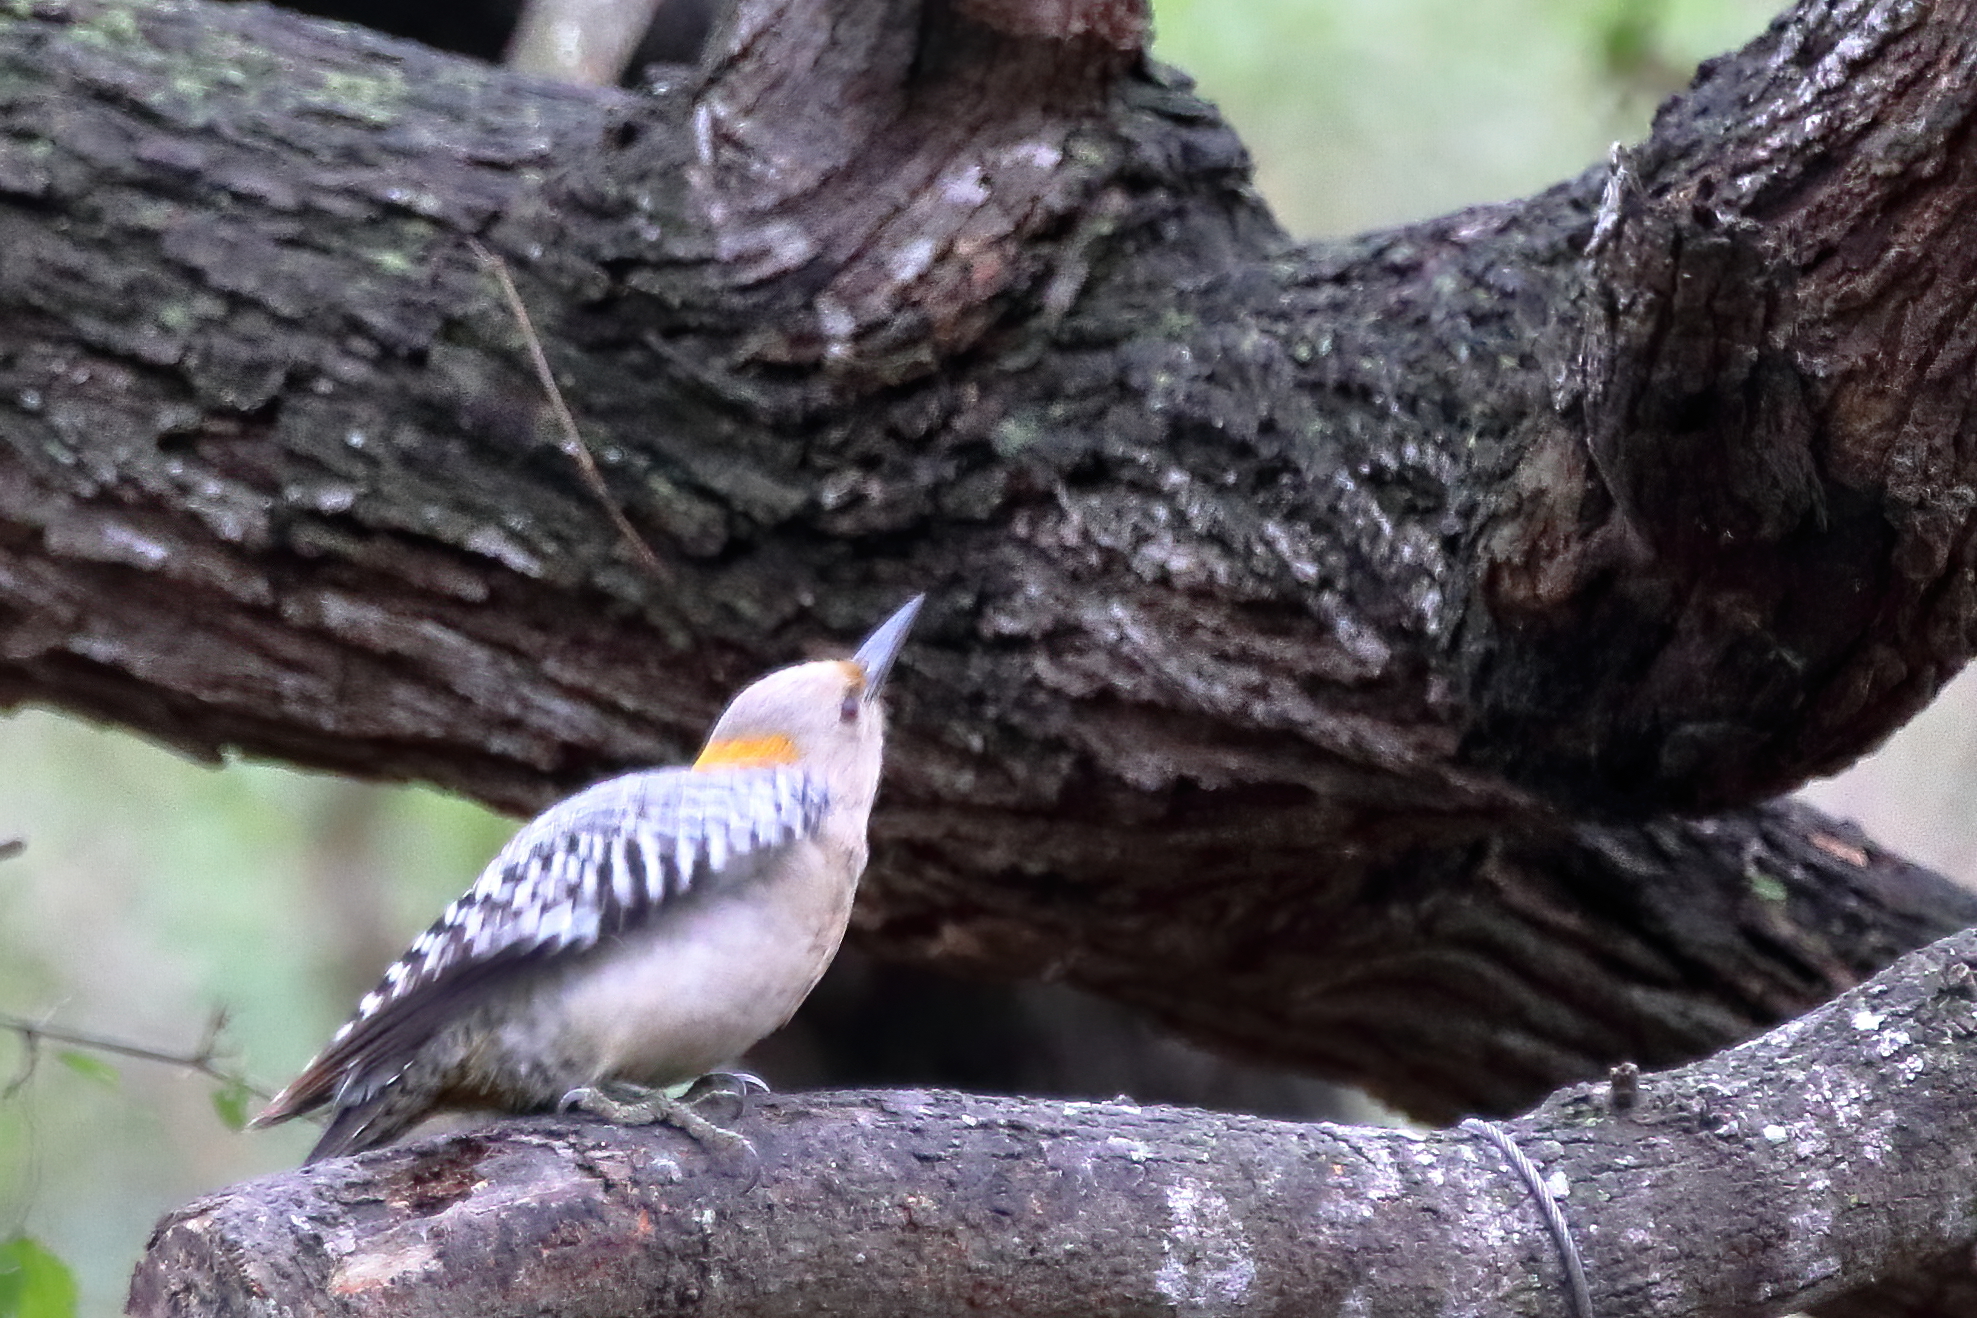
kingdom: Animalia
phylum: Chordata
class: Aves
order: Piciformes
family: Picidae
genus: Melanerpes
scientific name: Melanerpes aurifrons
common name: Golden-fronted woodpecker
